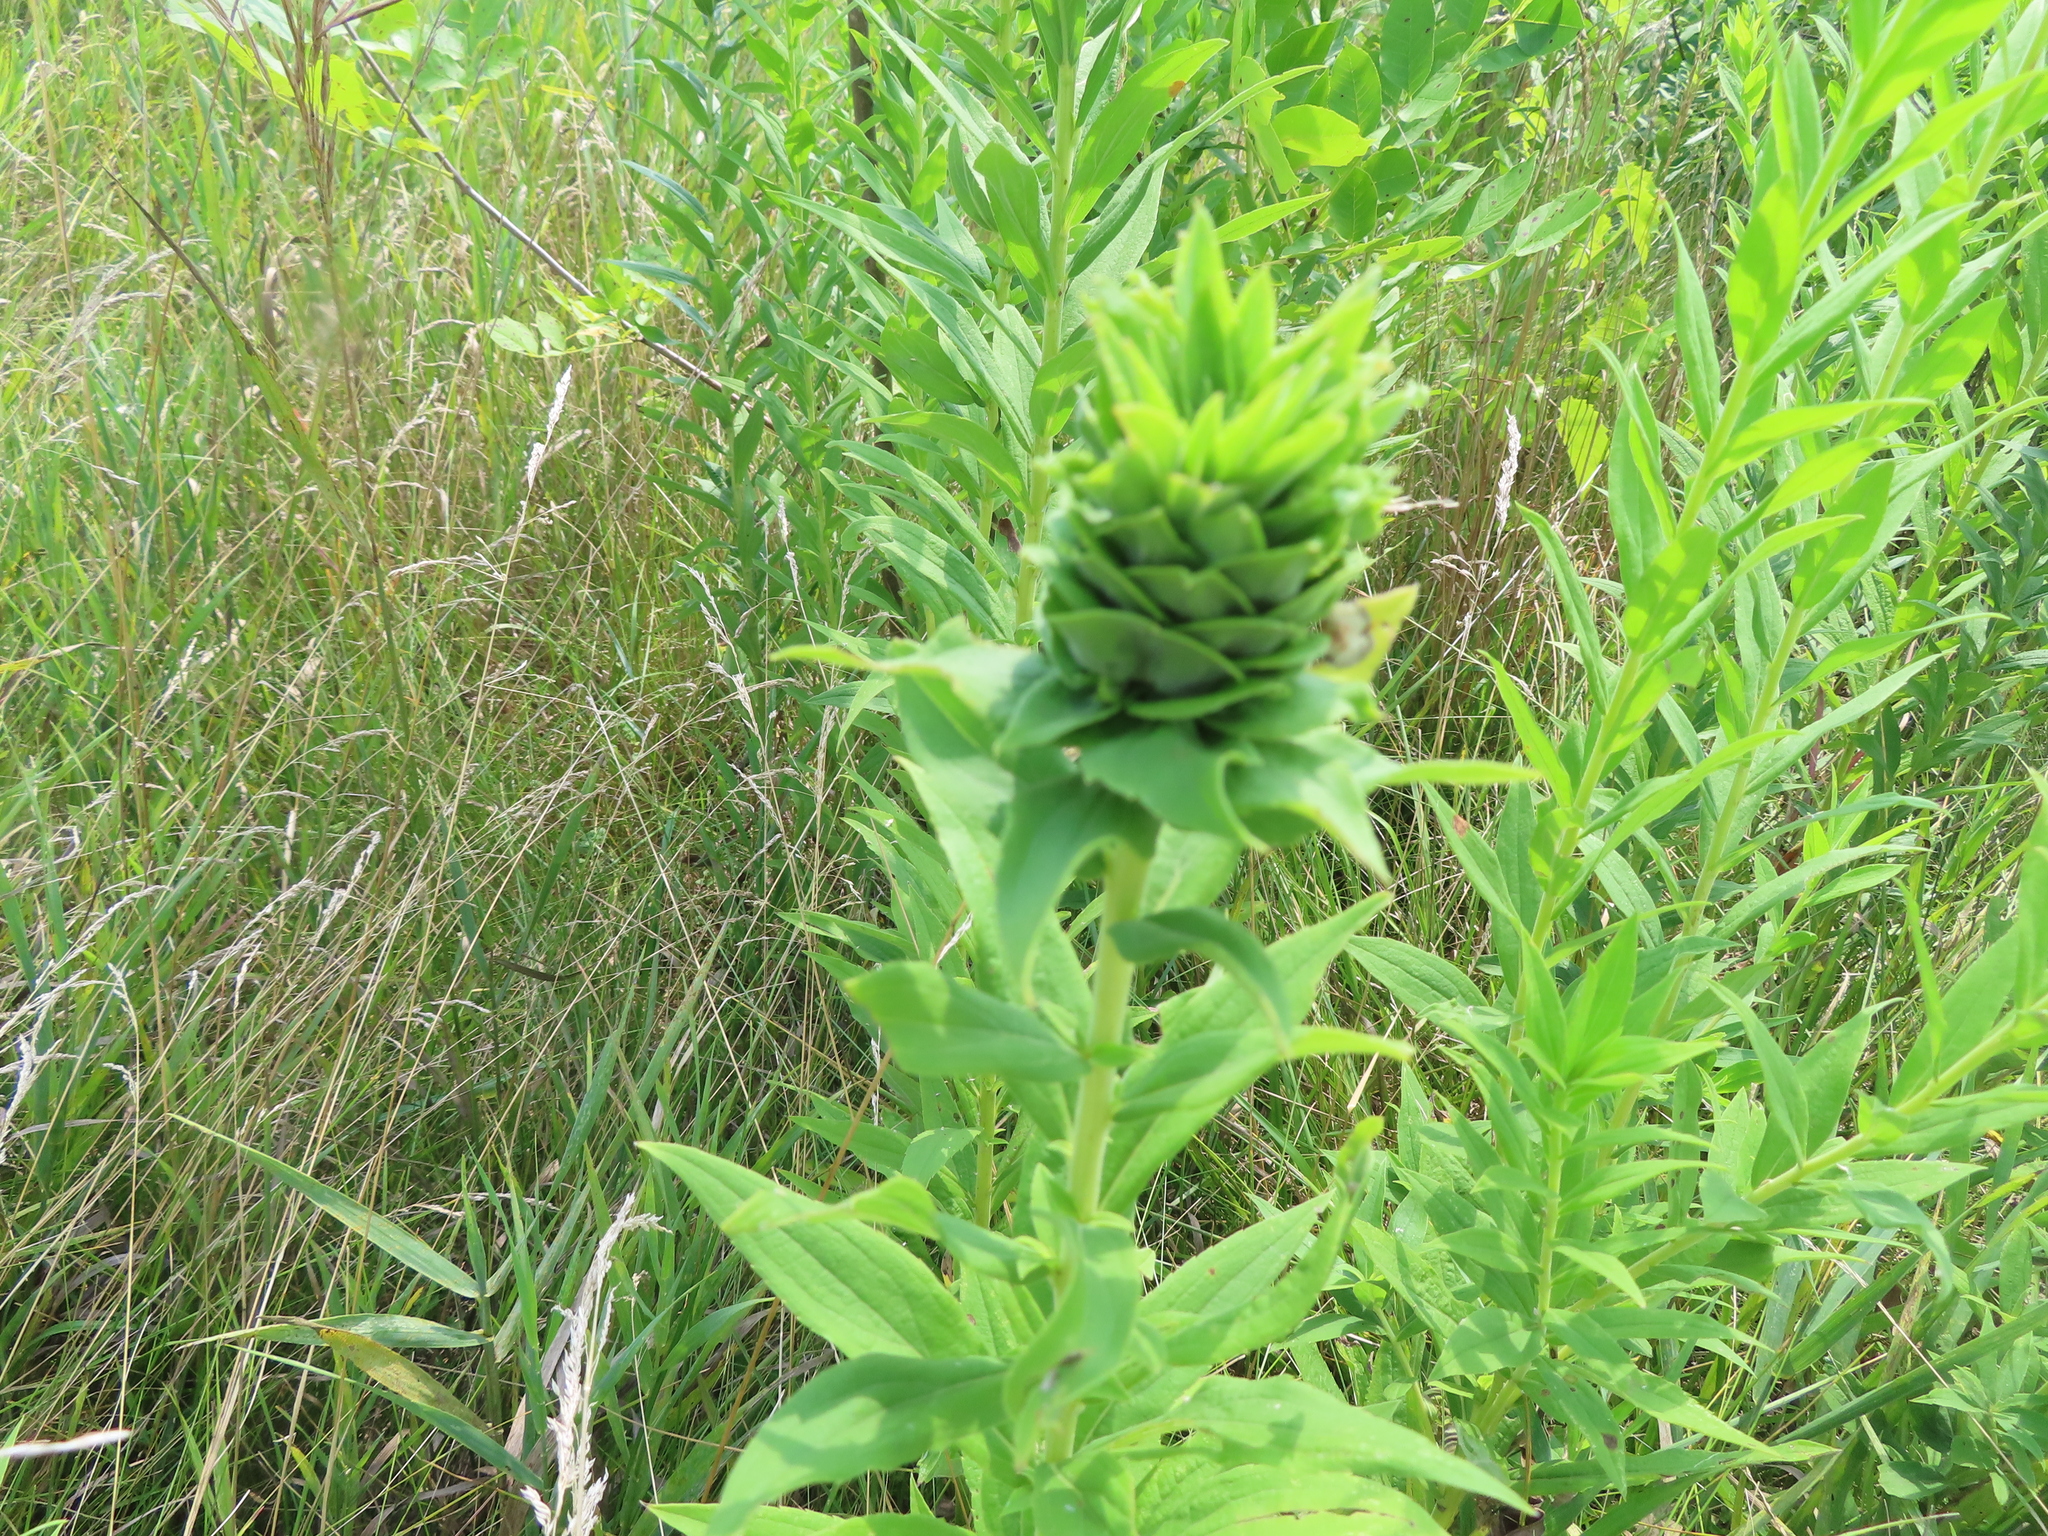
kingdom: Animalia
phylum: Arthropoda
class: Insecta
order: Diptera
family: Cecidomyiidae
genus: Rhopalomyia
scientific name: Rhopalomyia solidaginis
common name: Goldenrod bunch gall midge
